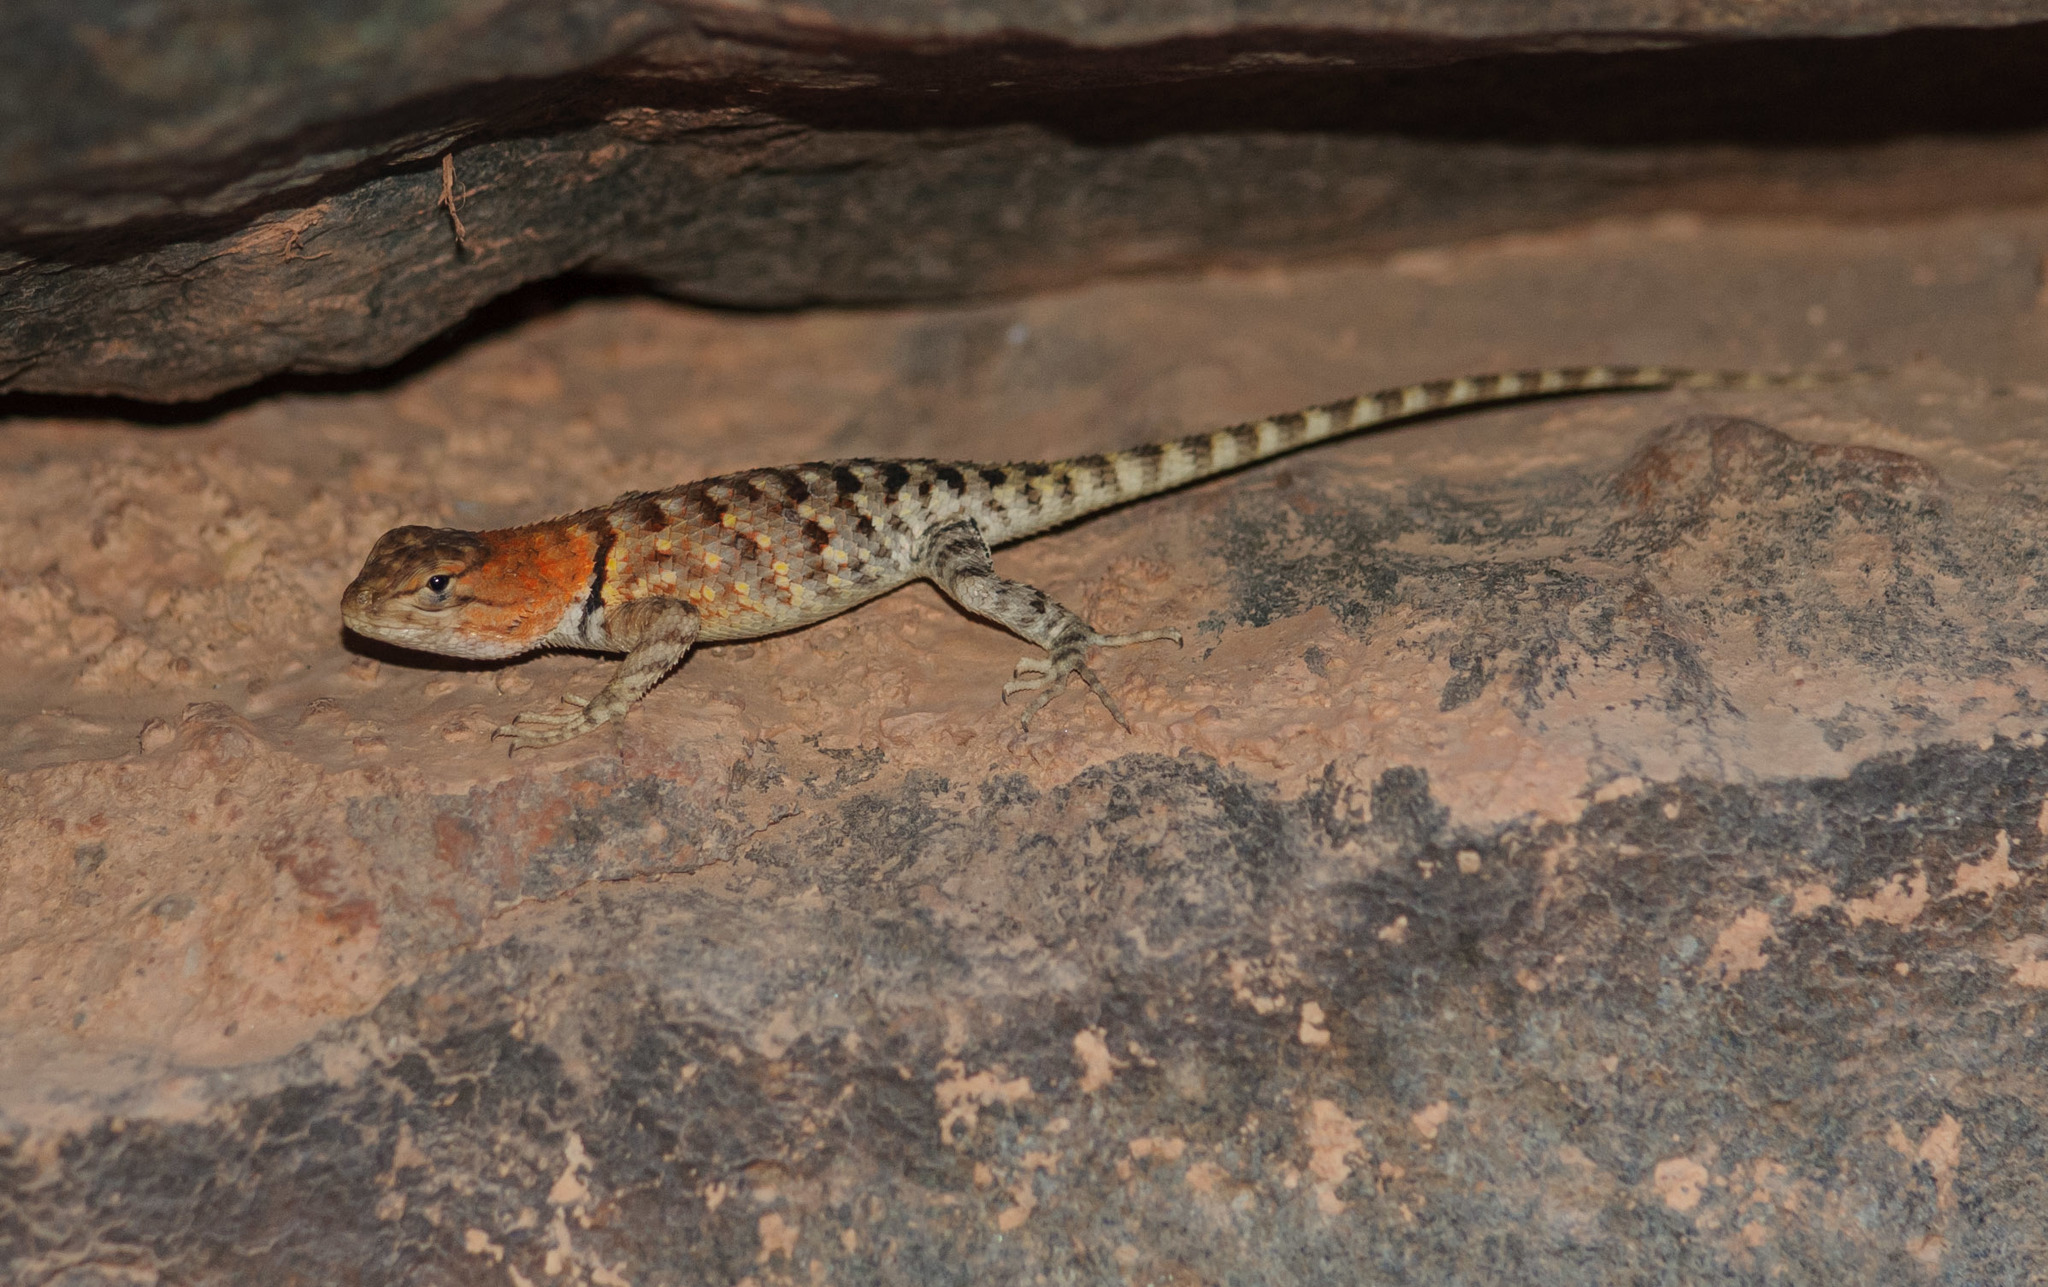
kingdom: Animalia
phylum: Chordata
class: Squamata
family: Phrynosomatidae
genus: Sceloporus
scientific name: Sceloporus magister
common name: Desert spiny lizard
